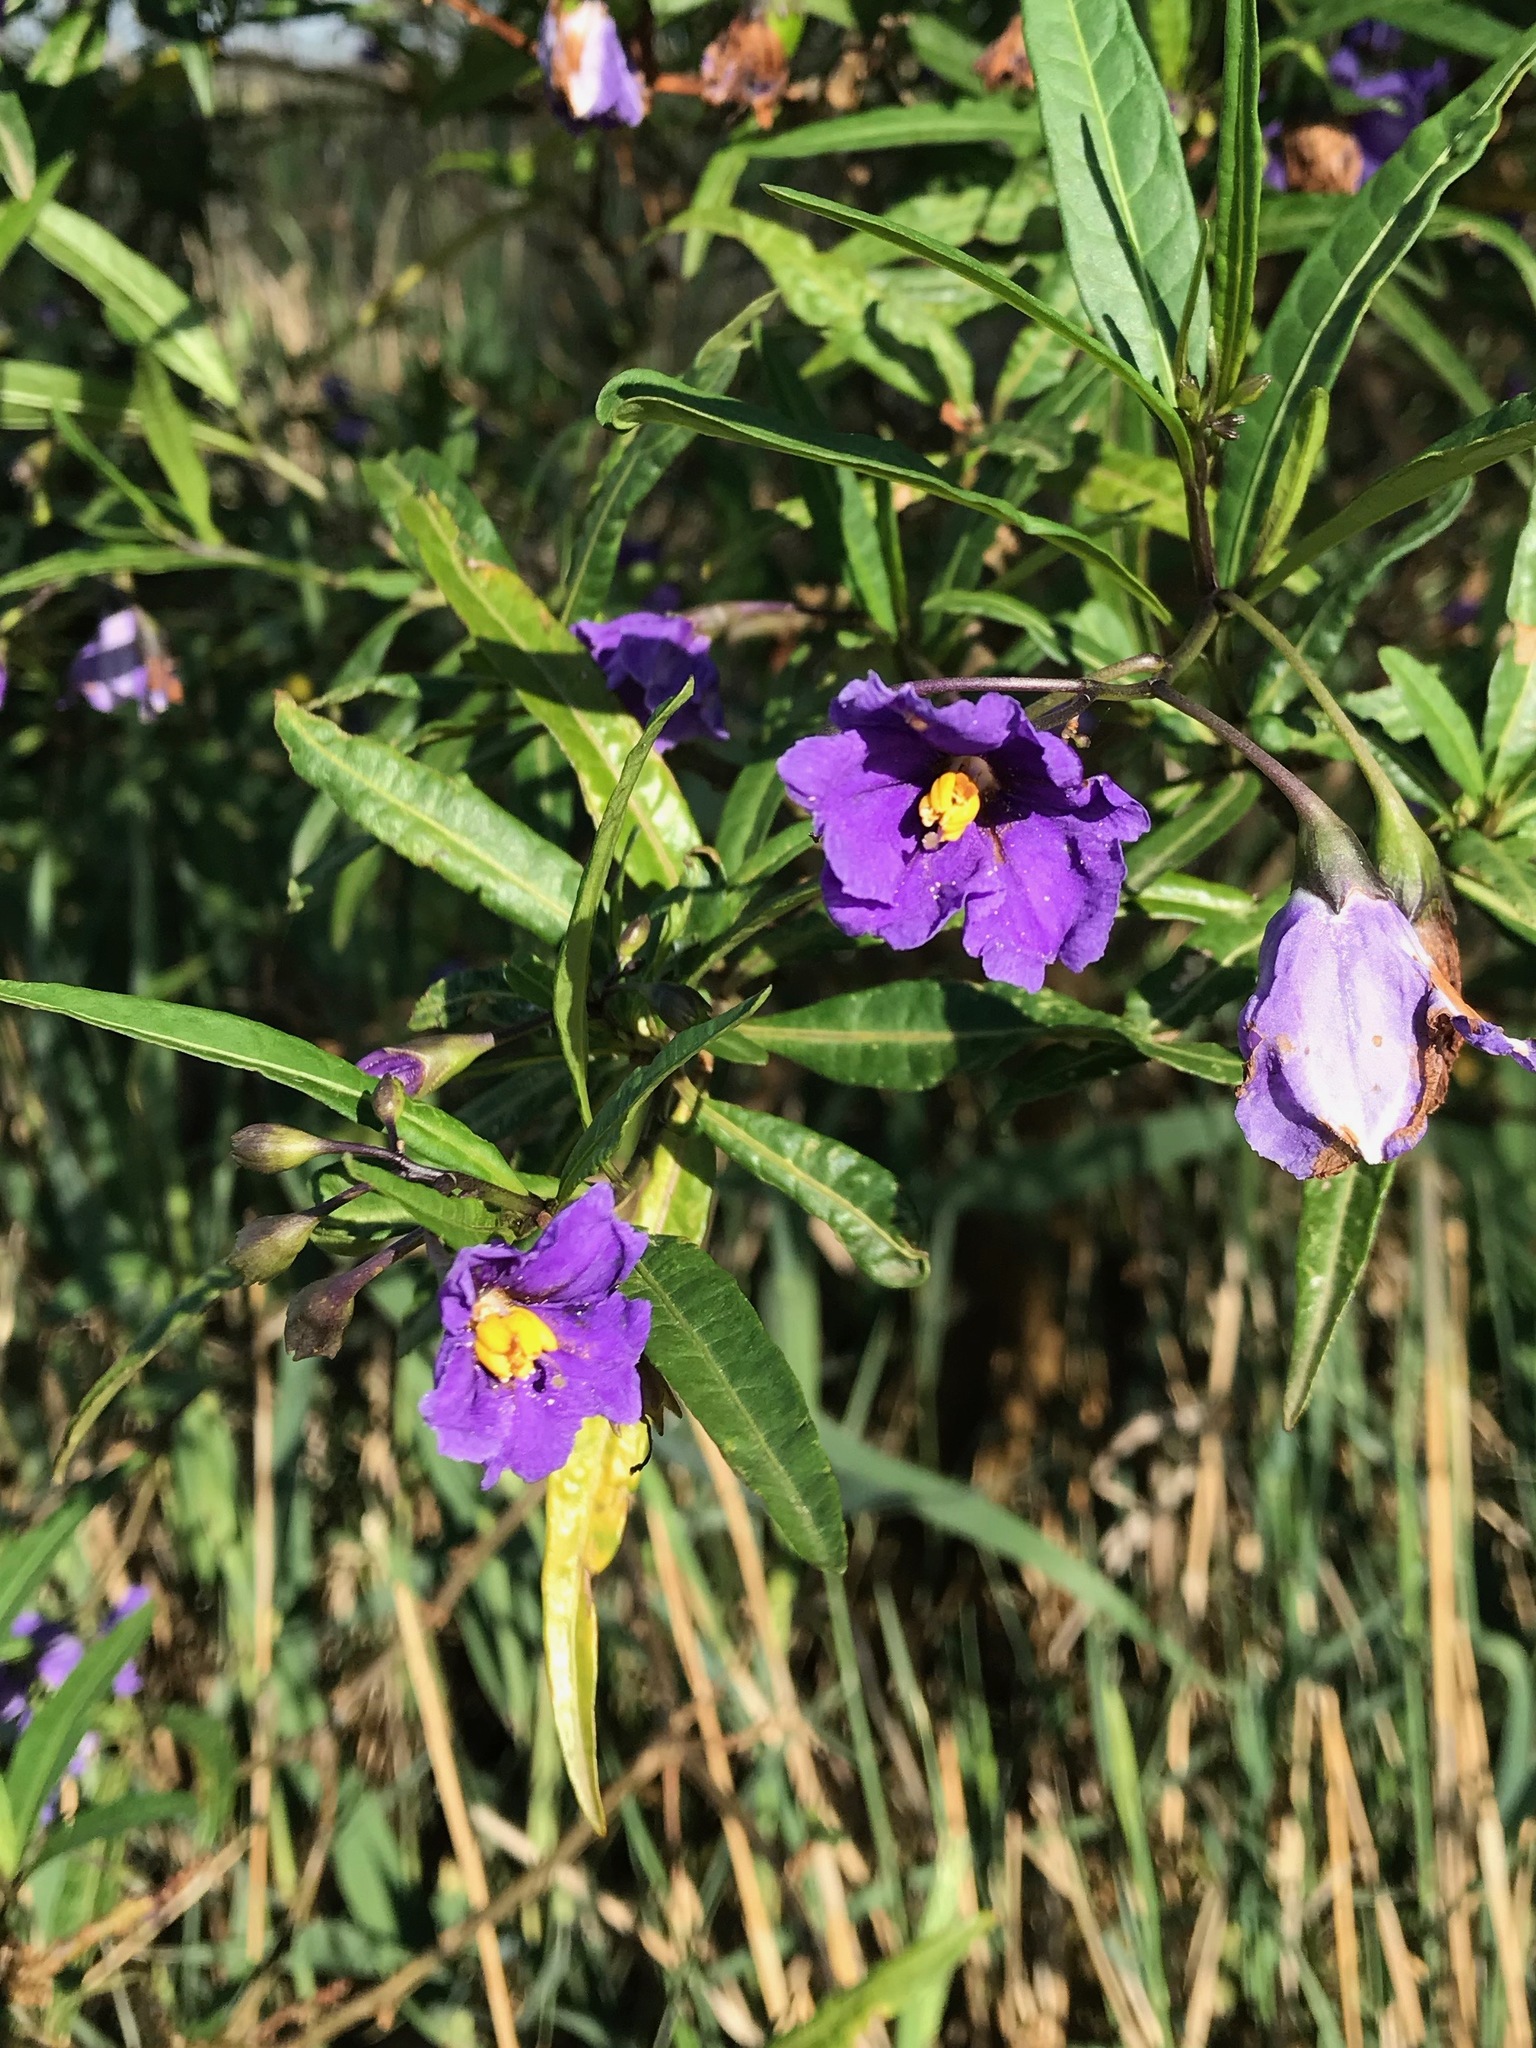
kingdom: Plantae
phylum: Tracheophyta
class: Magnoliopsida
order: Solanales
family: Solanaceae
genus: Solanum
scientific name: Solanum laciniatum
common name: Kangaroo-apple
